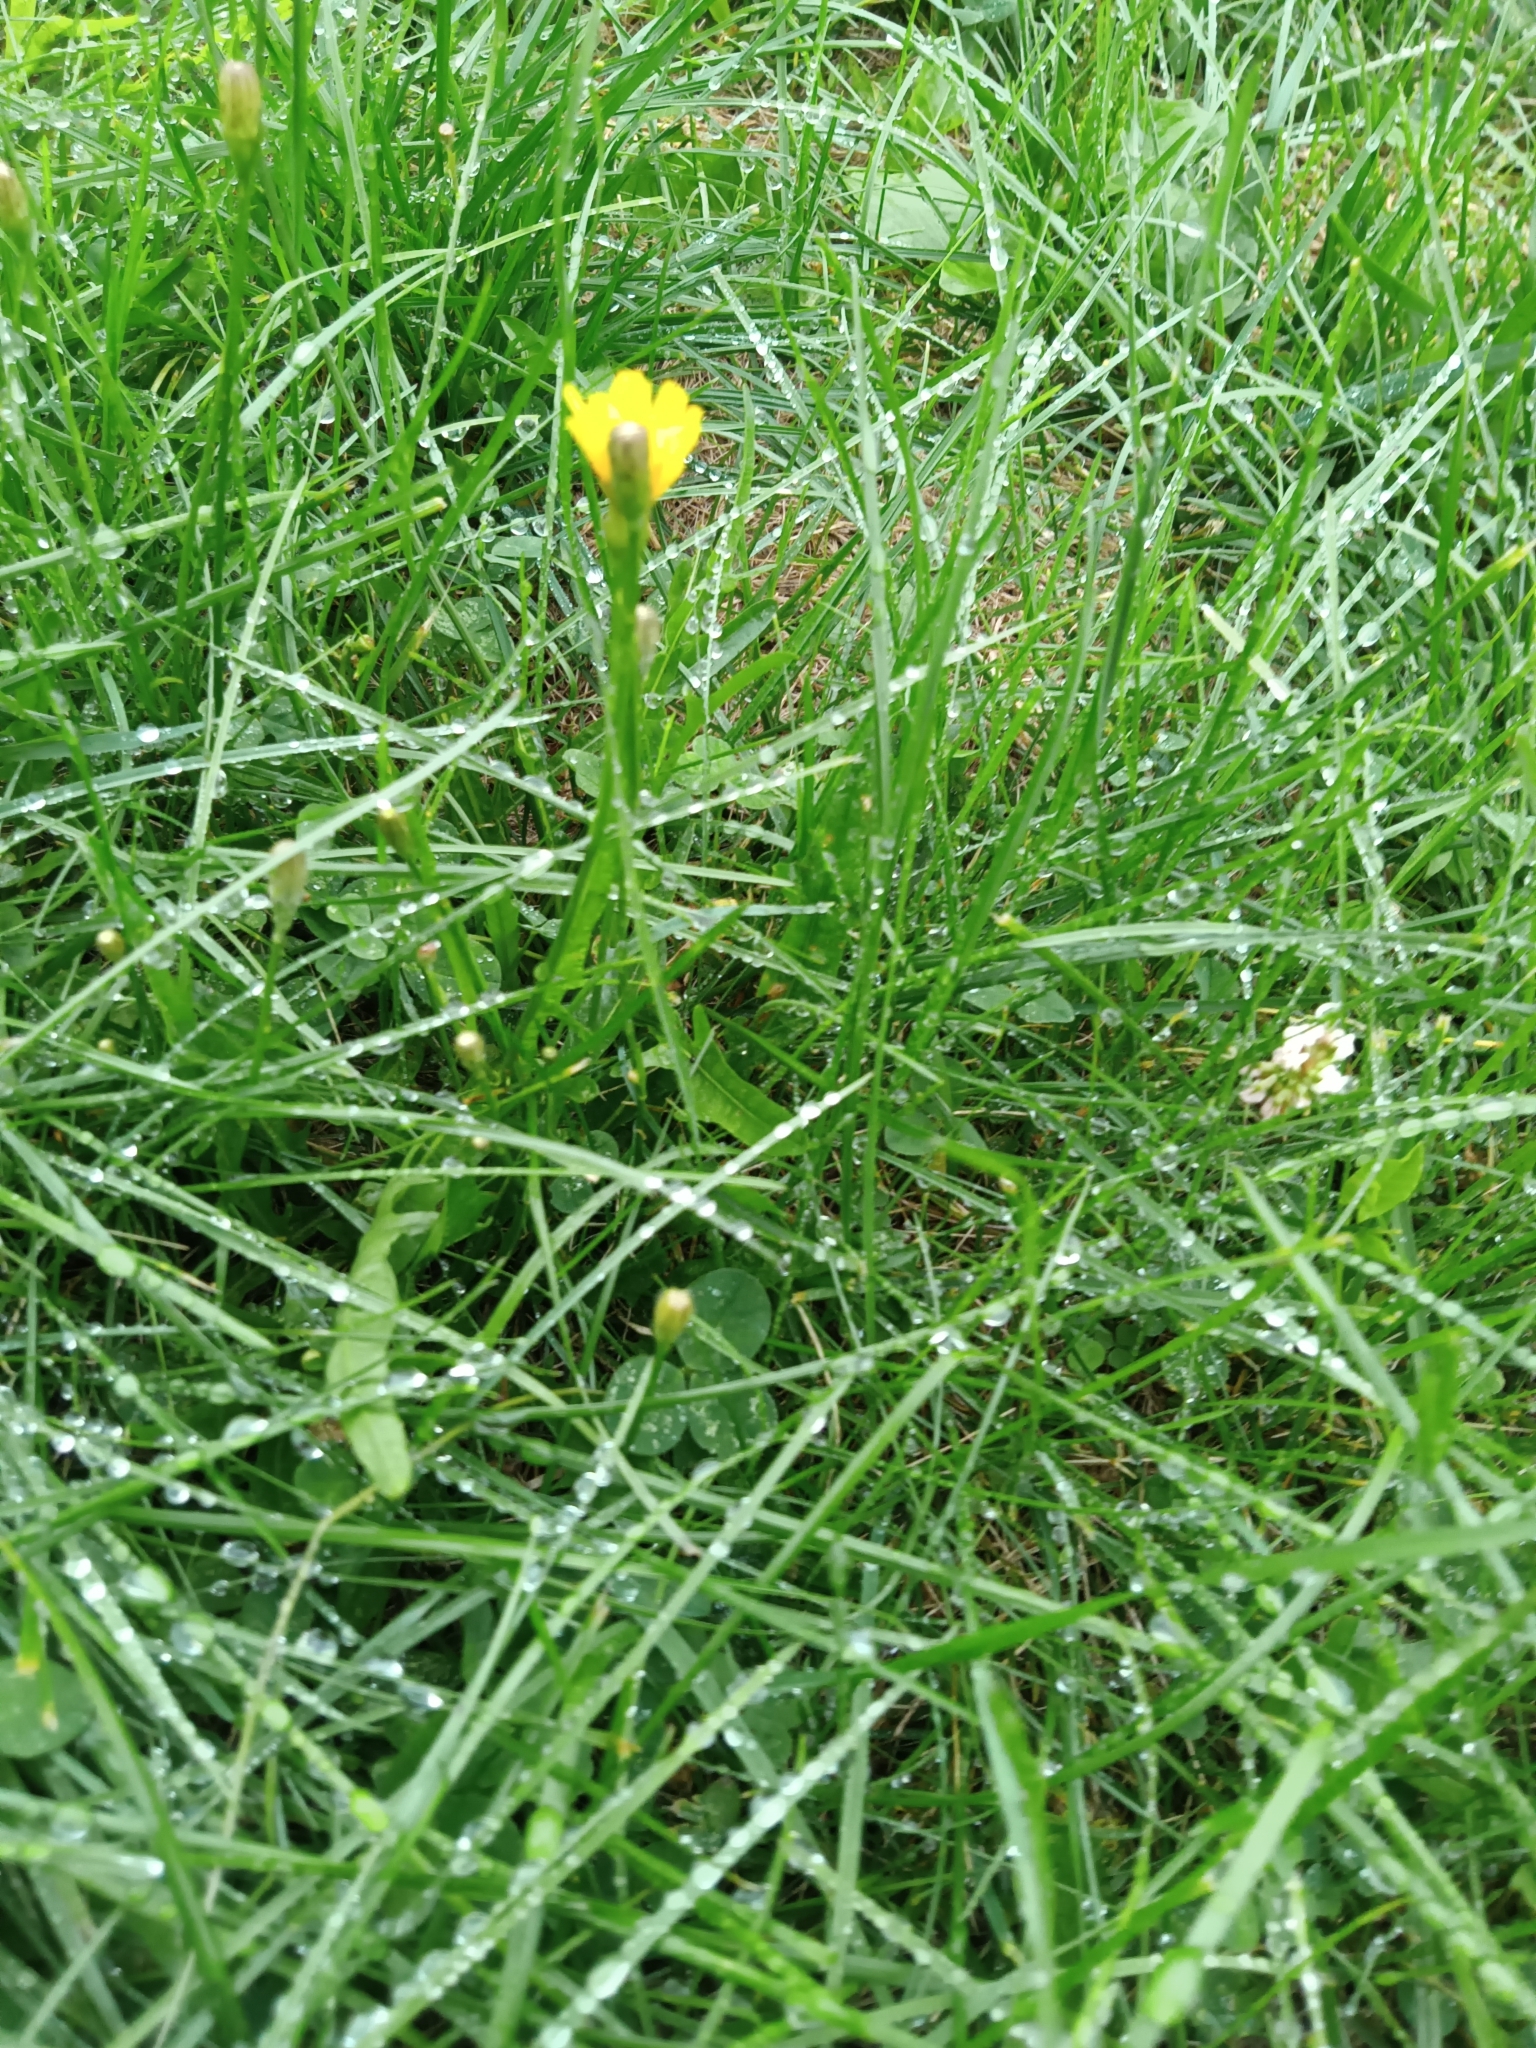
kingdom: Plantae
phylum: Tracheophyta
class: Magnoliopsida
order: Asterales
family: Asteraceae
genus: Scorzoneroides
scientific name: Scorzoneroides autumnalis
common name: Autumn hawkbit
